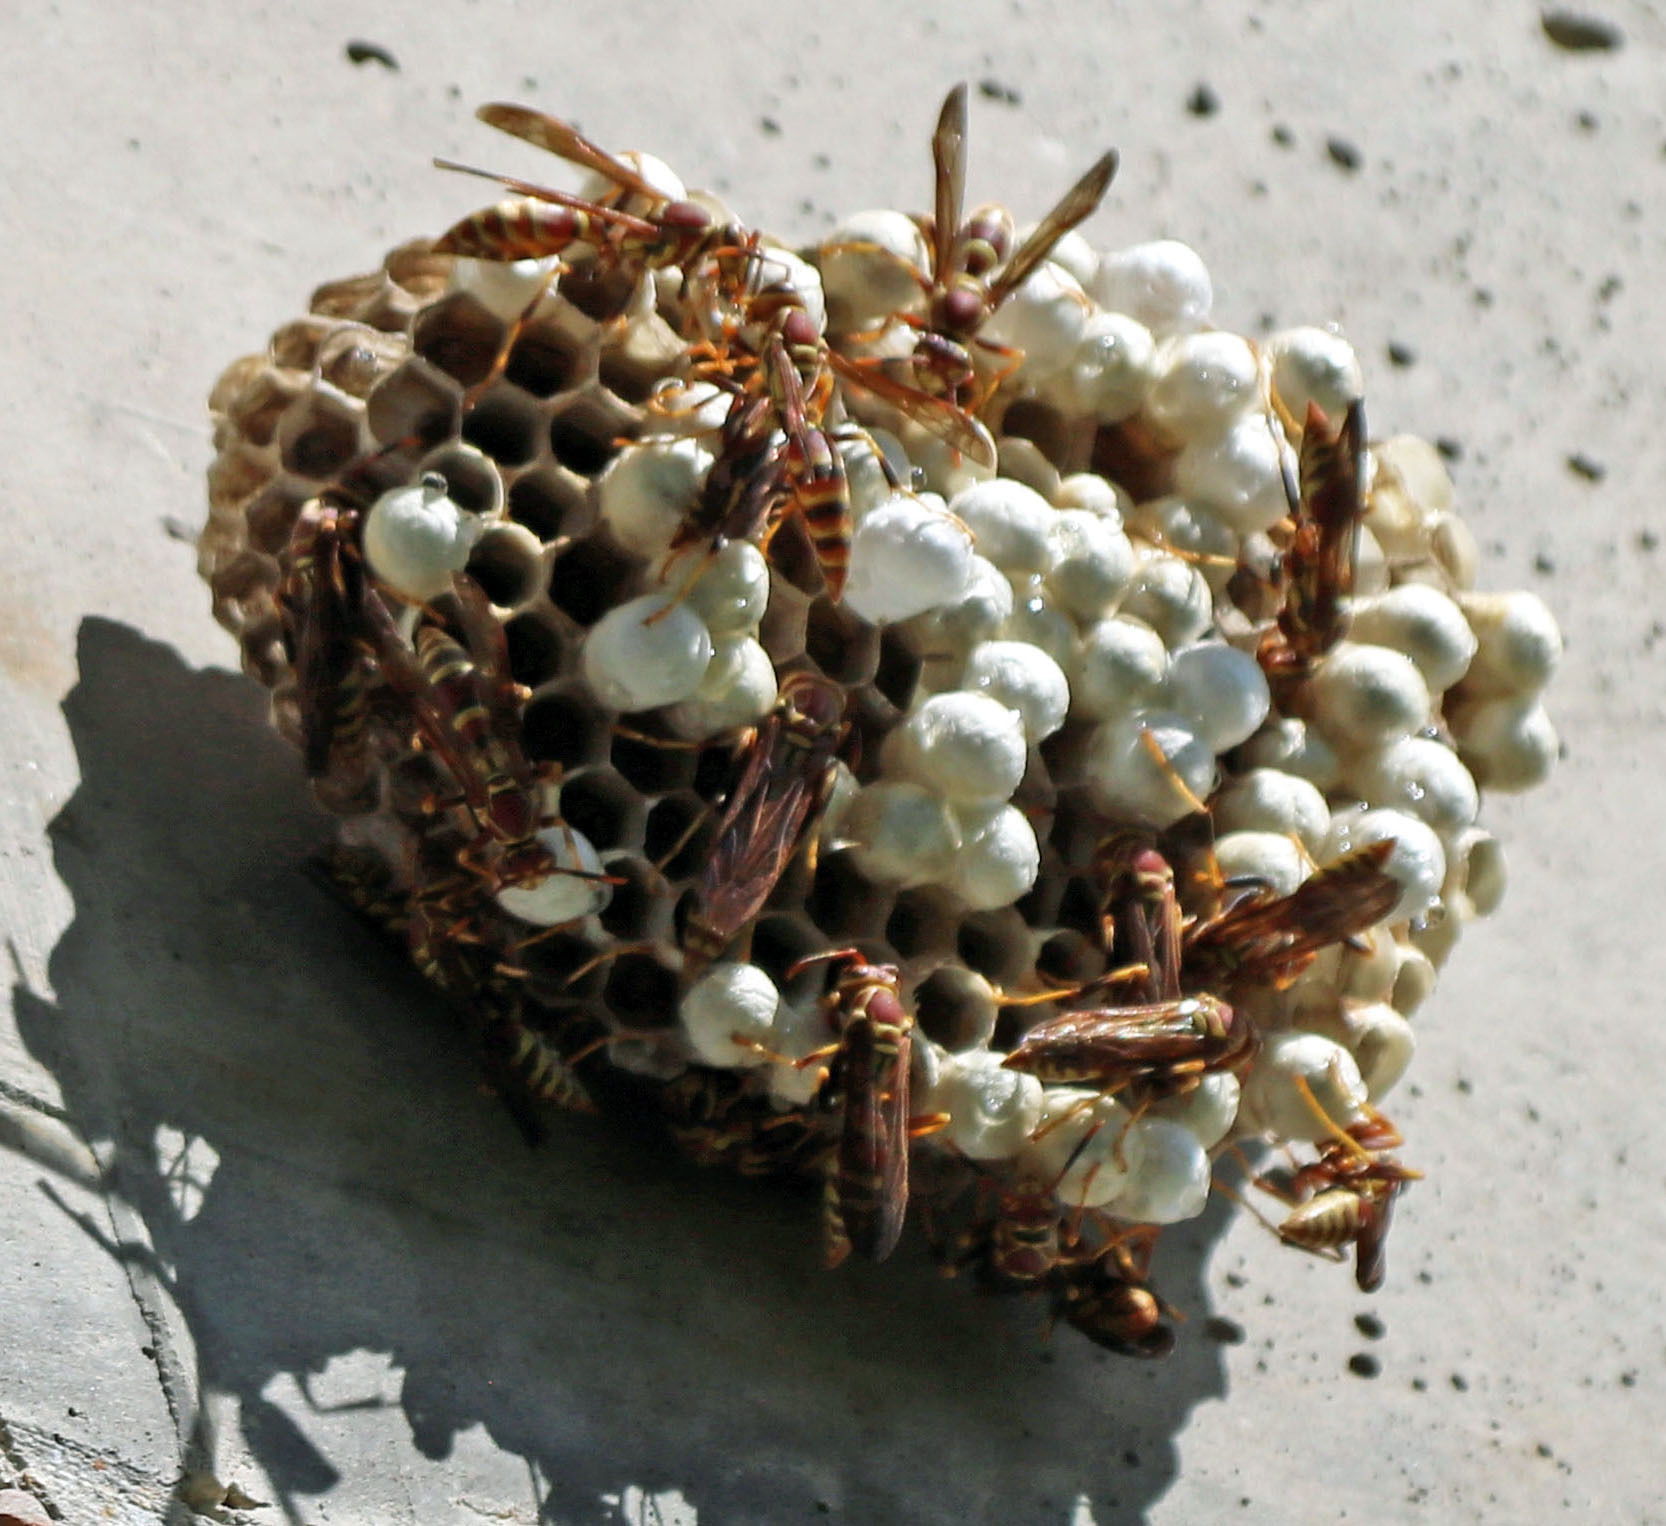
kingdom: Animalia
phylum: Arthropoda
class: Insecta
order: Hymenoptera
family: Eumenidae
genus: Polistes
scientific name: Polistes exclamans
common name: Paper wasp
